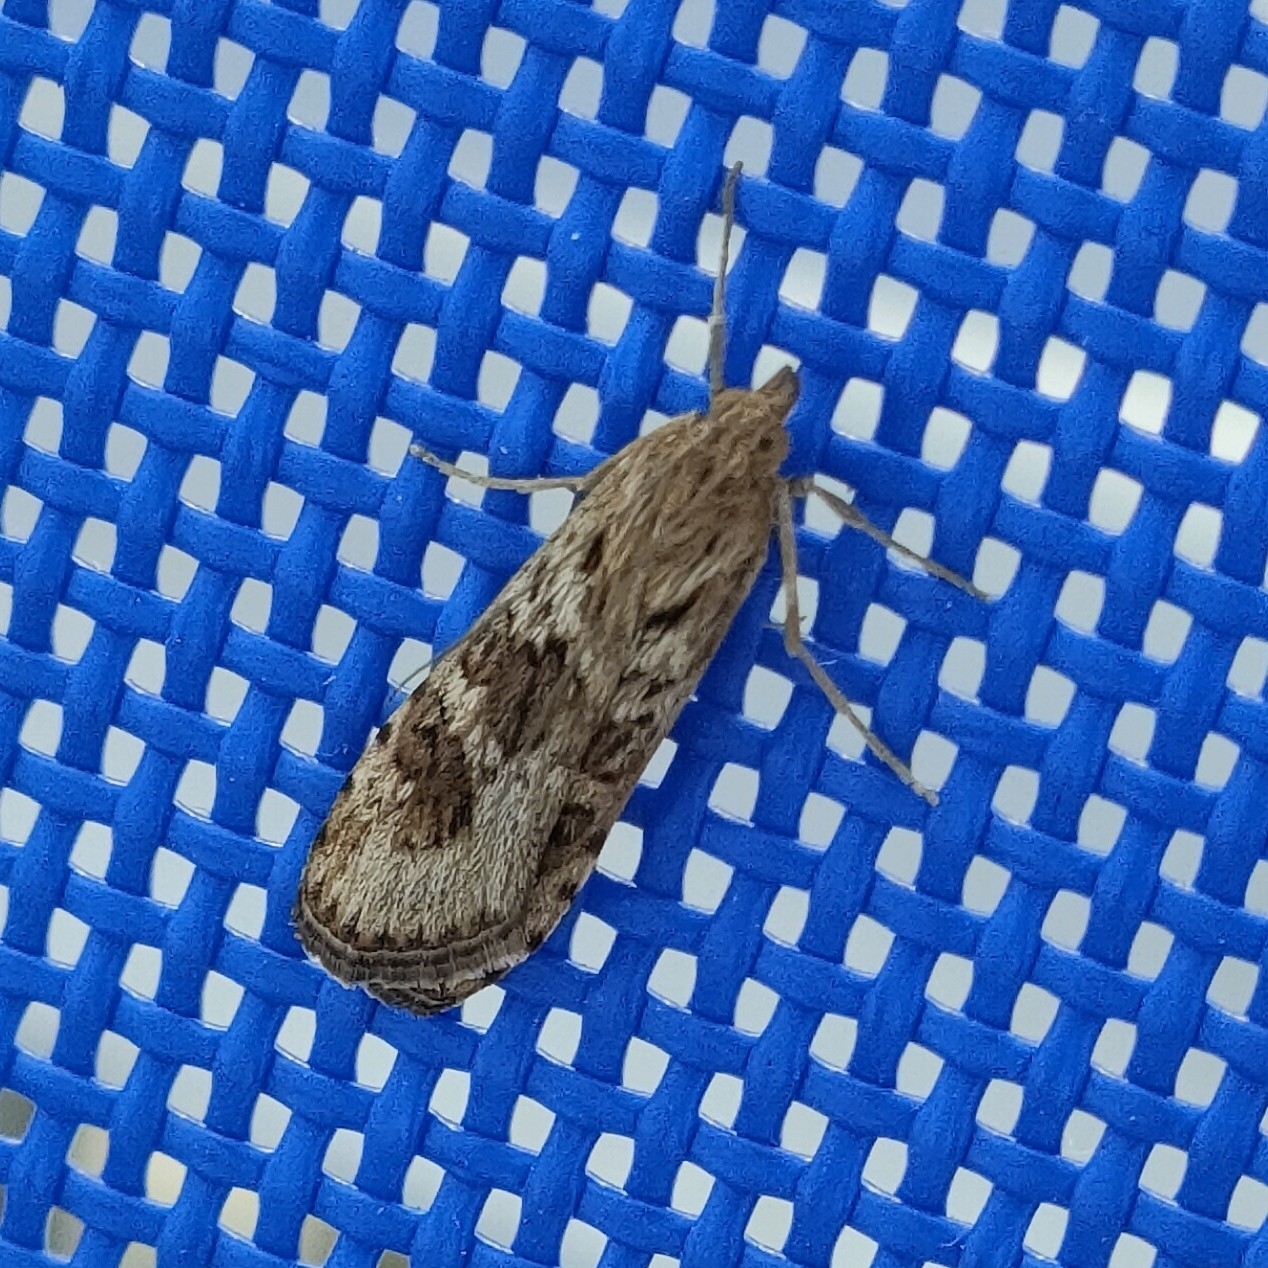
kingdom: Animalia
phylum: Arthropoda
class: Insecta
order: Lepidoptera
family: Crambidae
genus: Nomophila
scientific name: Nomophila noctuella
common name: Rush veneer
